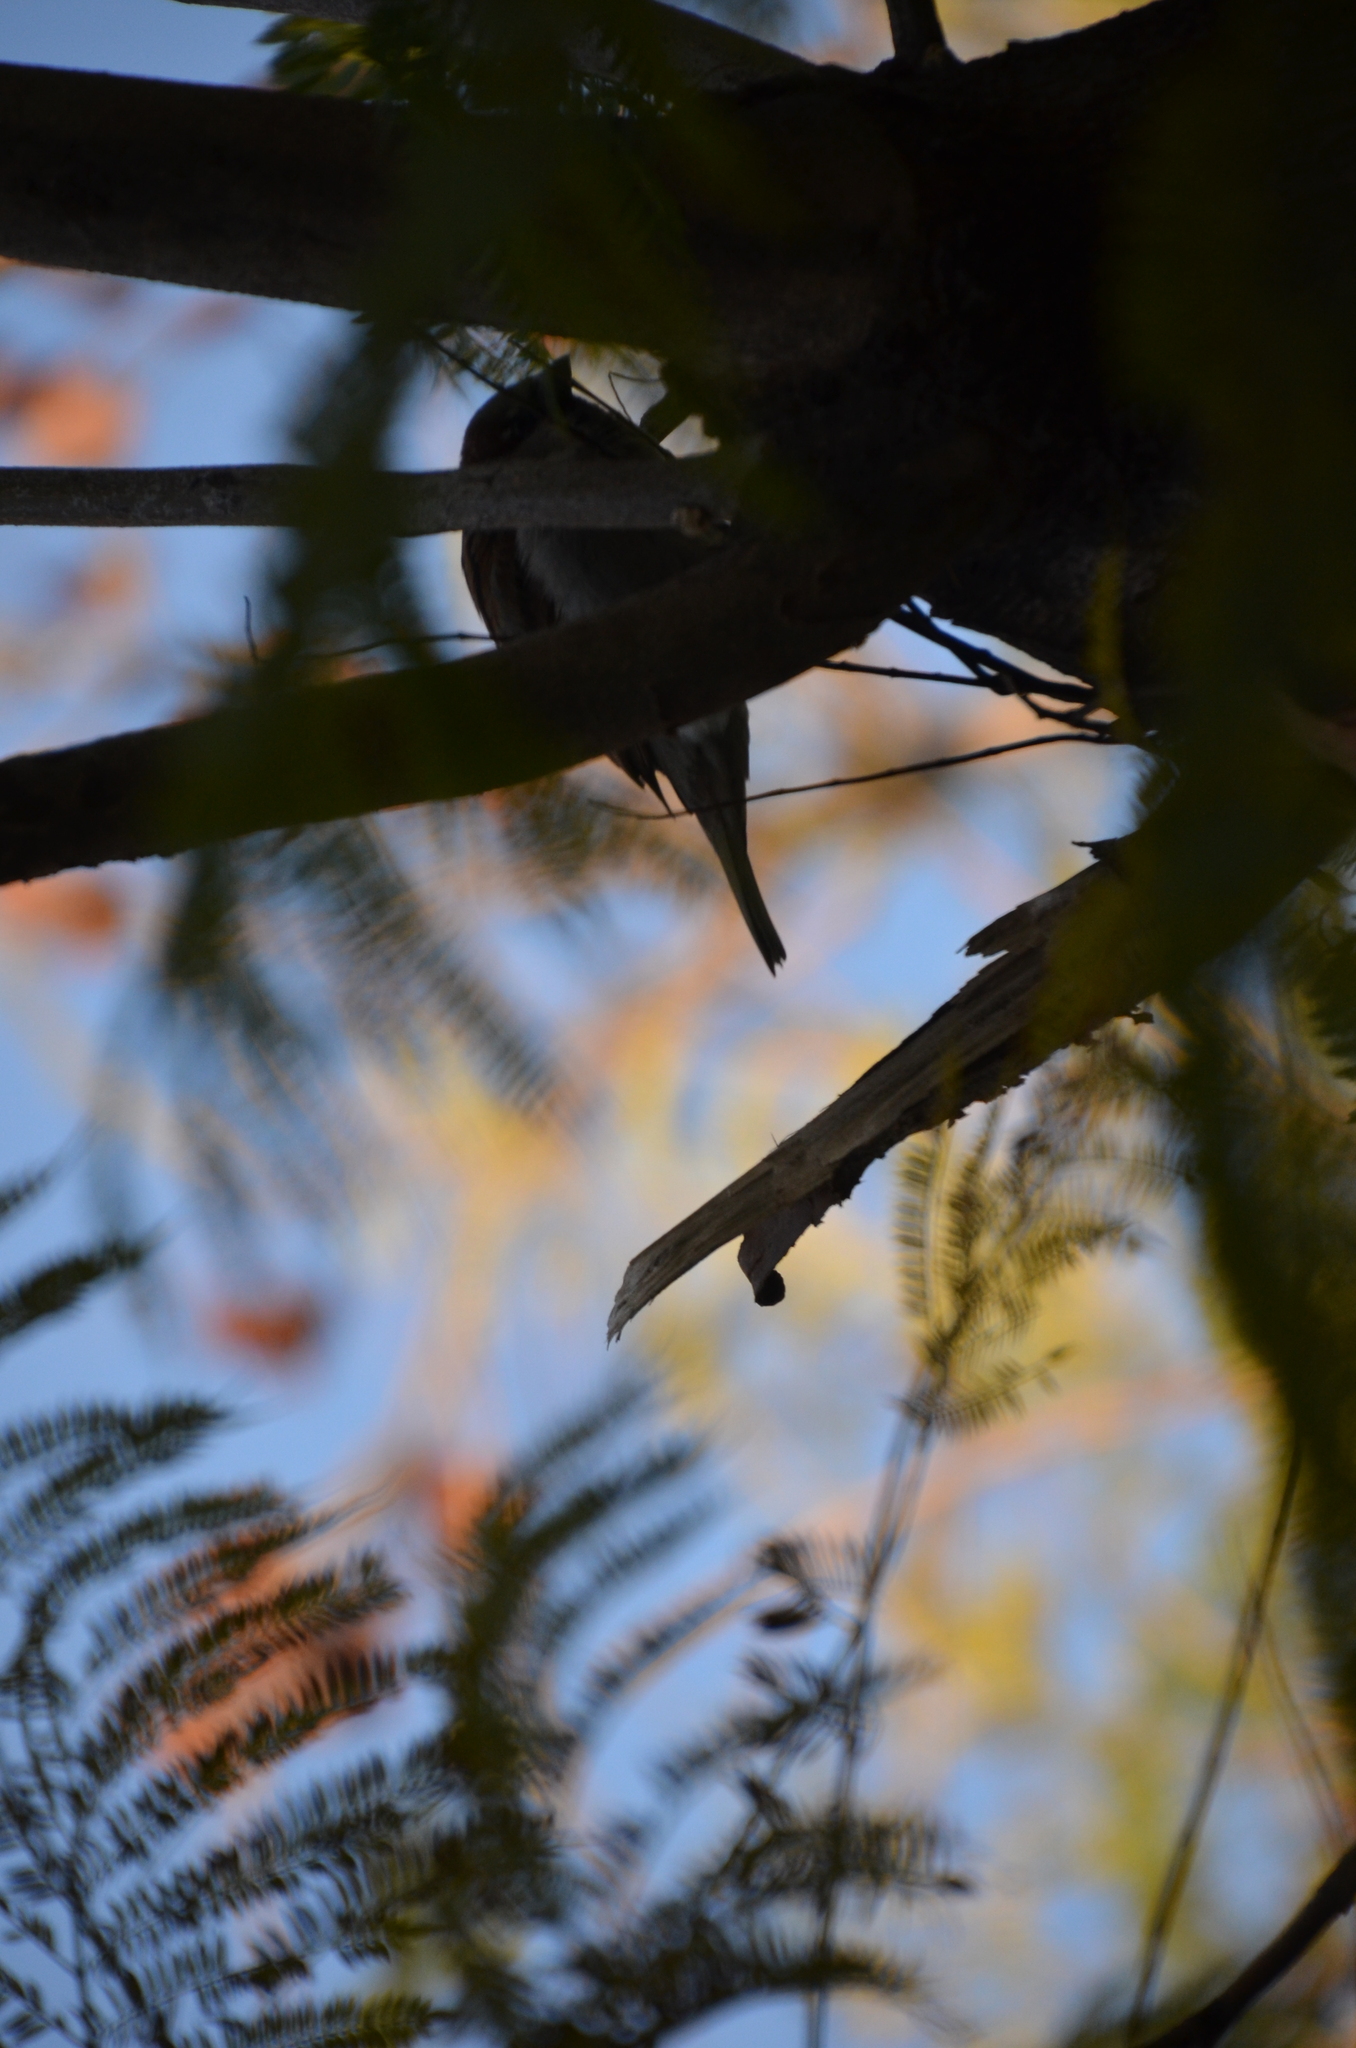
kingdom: Animalia
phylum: Chordata
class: Aves
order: Passeriformes
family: Passeridae
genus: Passer
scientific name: Passer domesticus
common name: House sparrow
